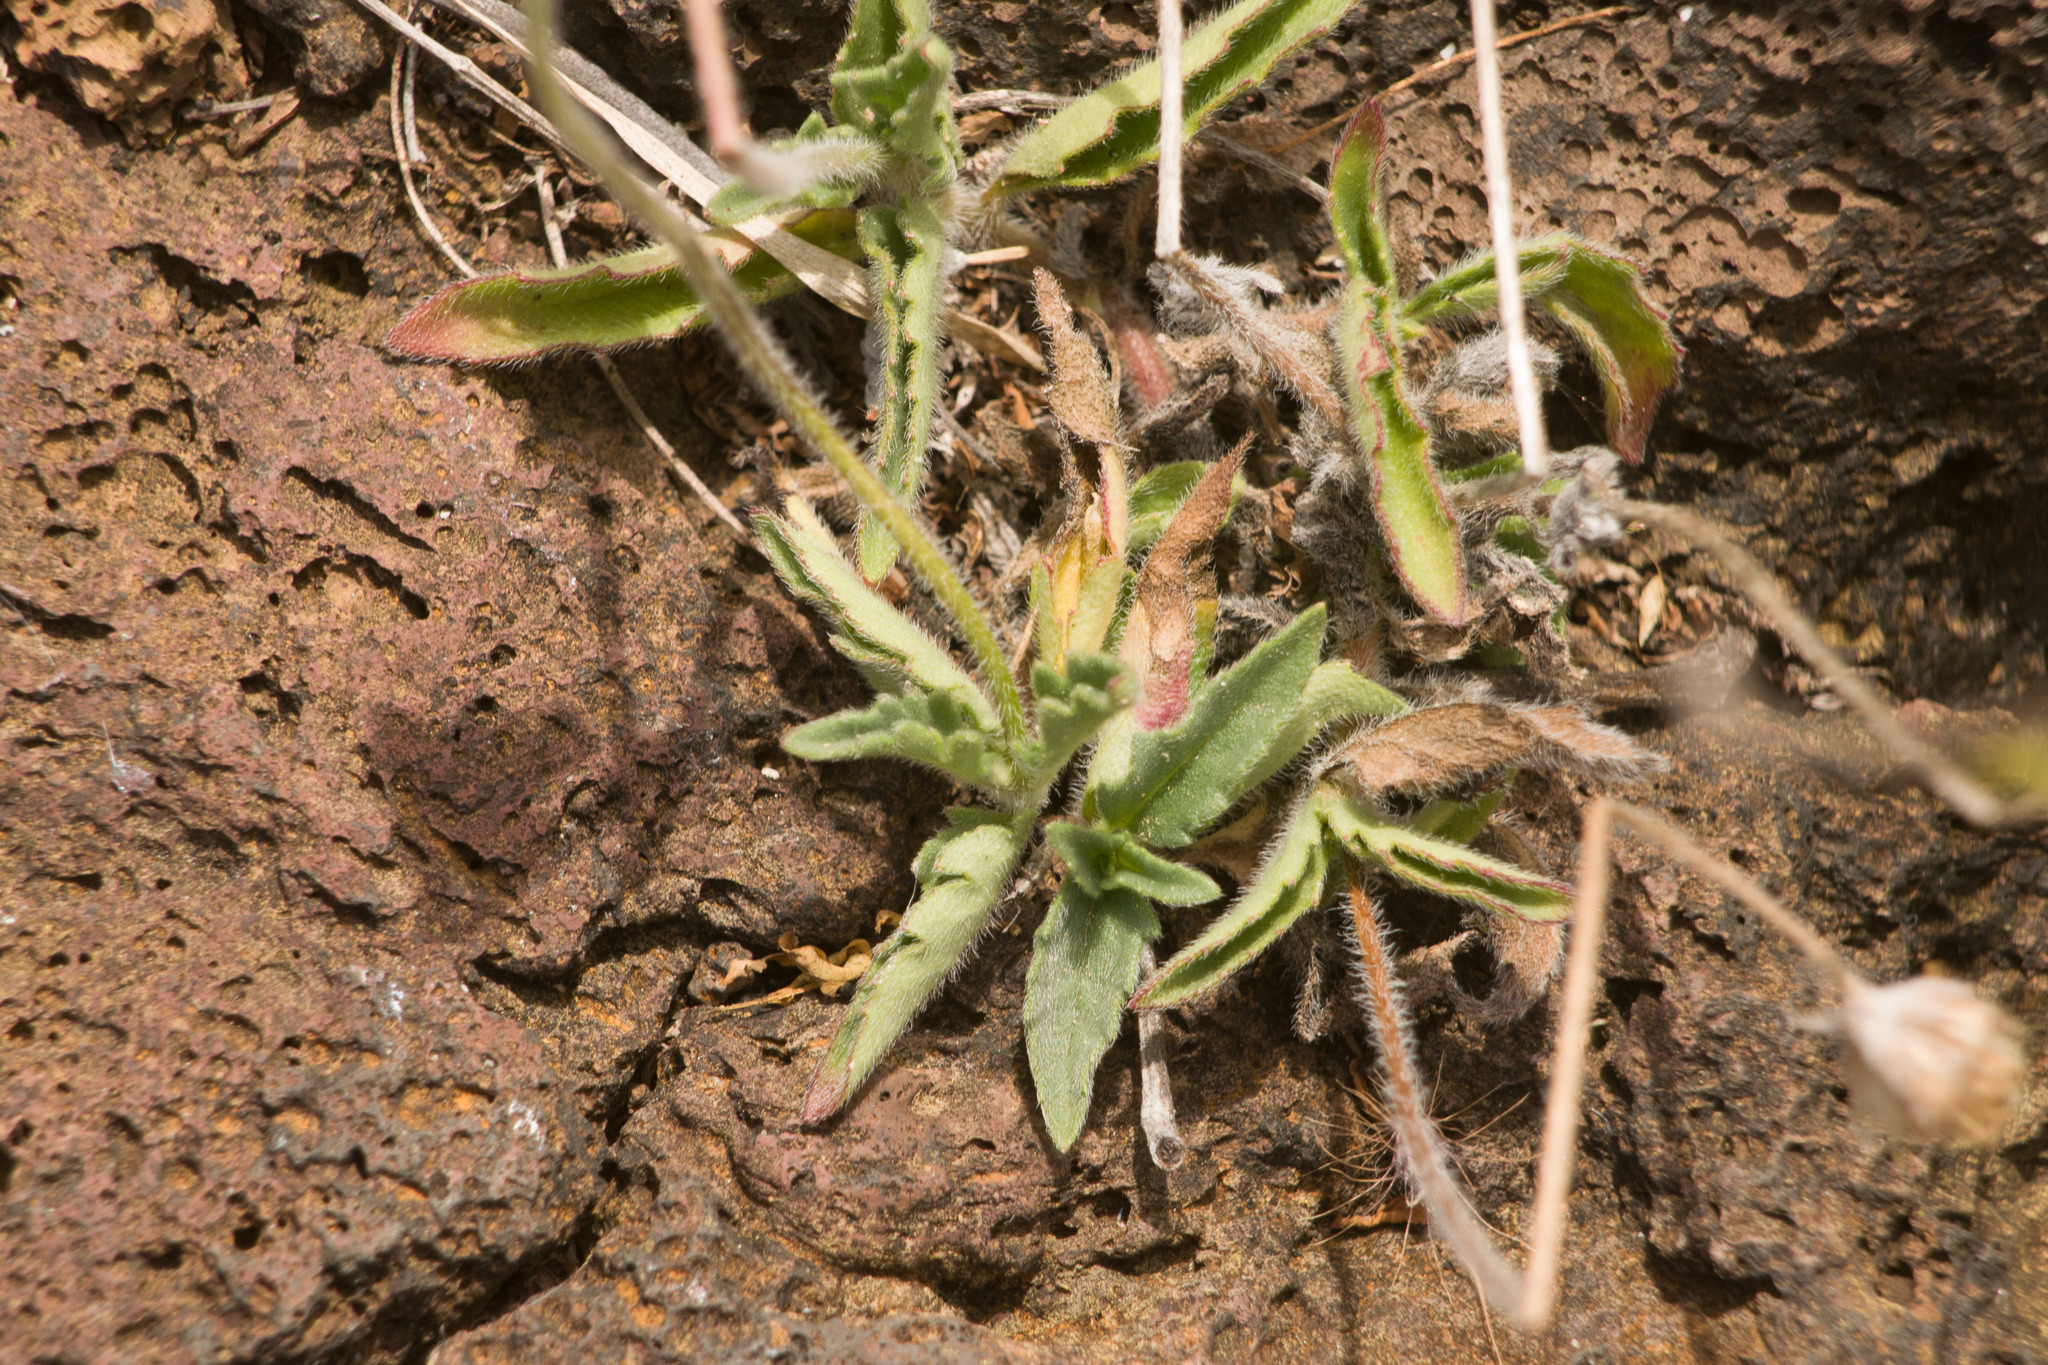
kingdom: Plantae
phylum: Tracheophyta
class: Magnoliopsida
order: Asterales
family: Asteraceae
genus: Tridax
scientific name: Tridax procumbens
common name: Coatbuttons
